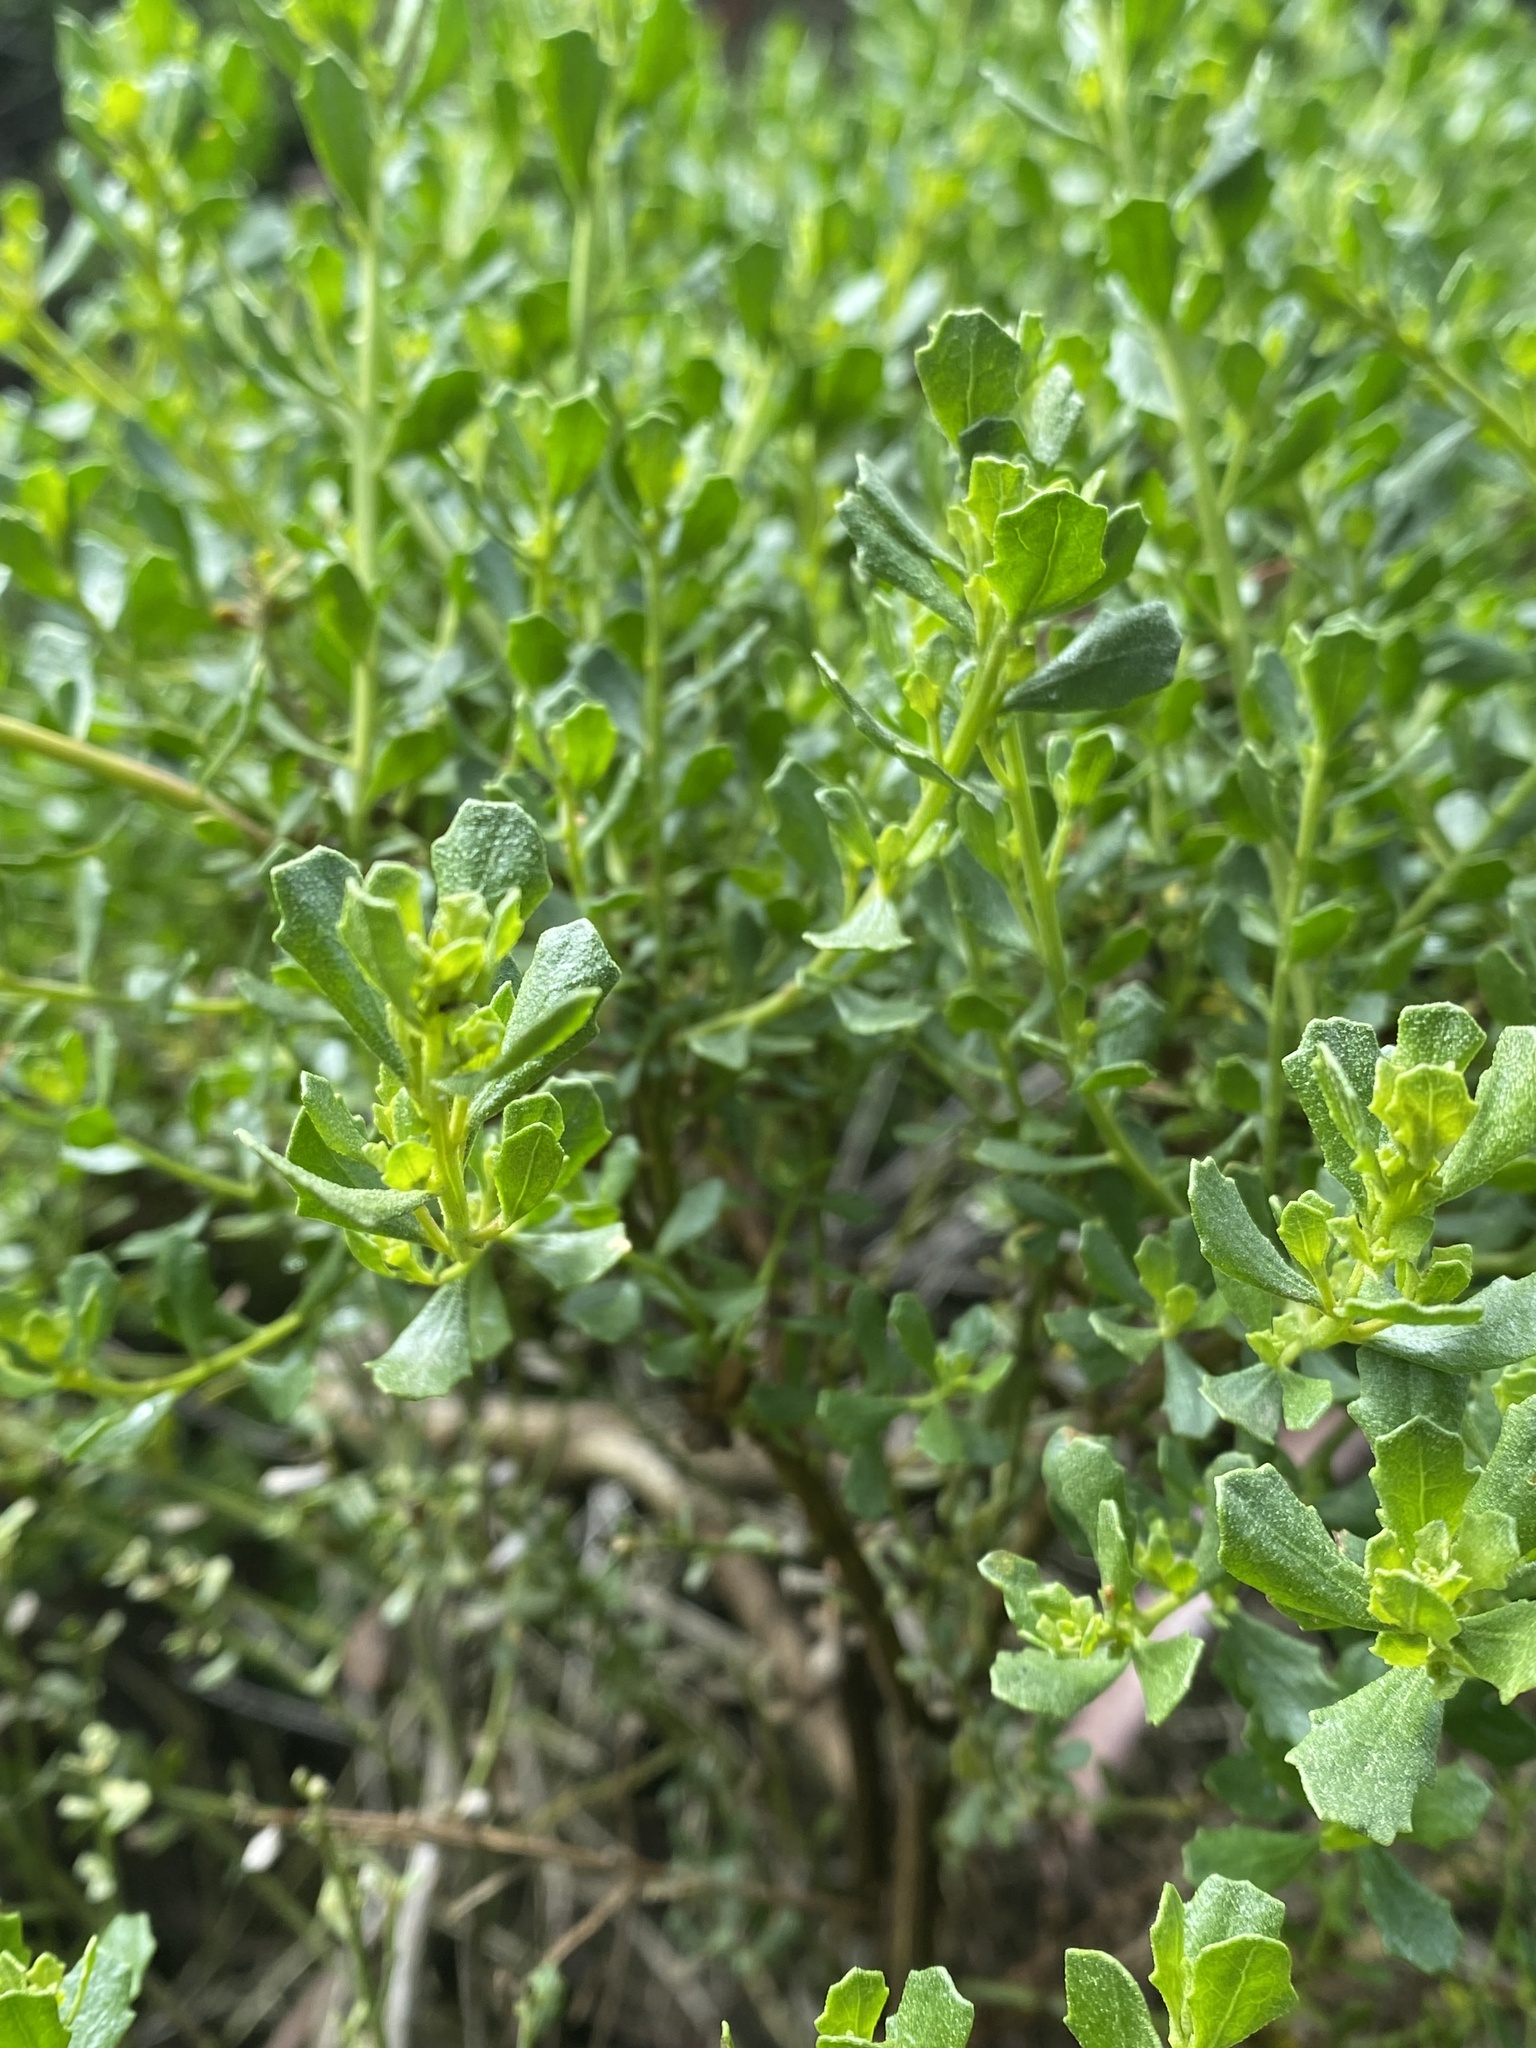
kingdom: Plantae
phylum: Tracheophyta
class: Magnoliopsida
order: Asterales
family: Asteraceae
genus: Baccharis
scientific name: Baccharis pilularis
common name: Coyotebrush
